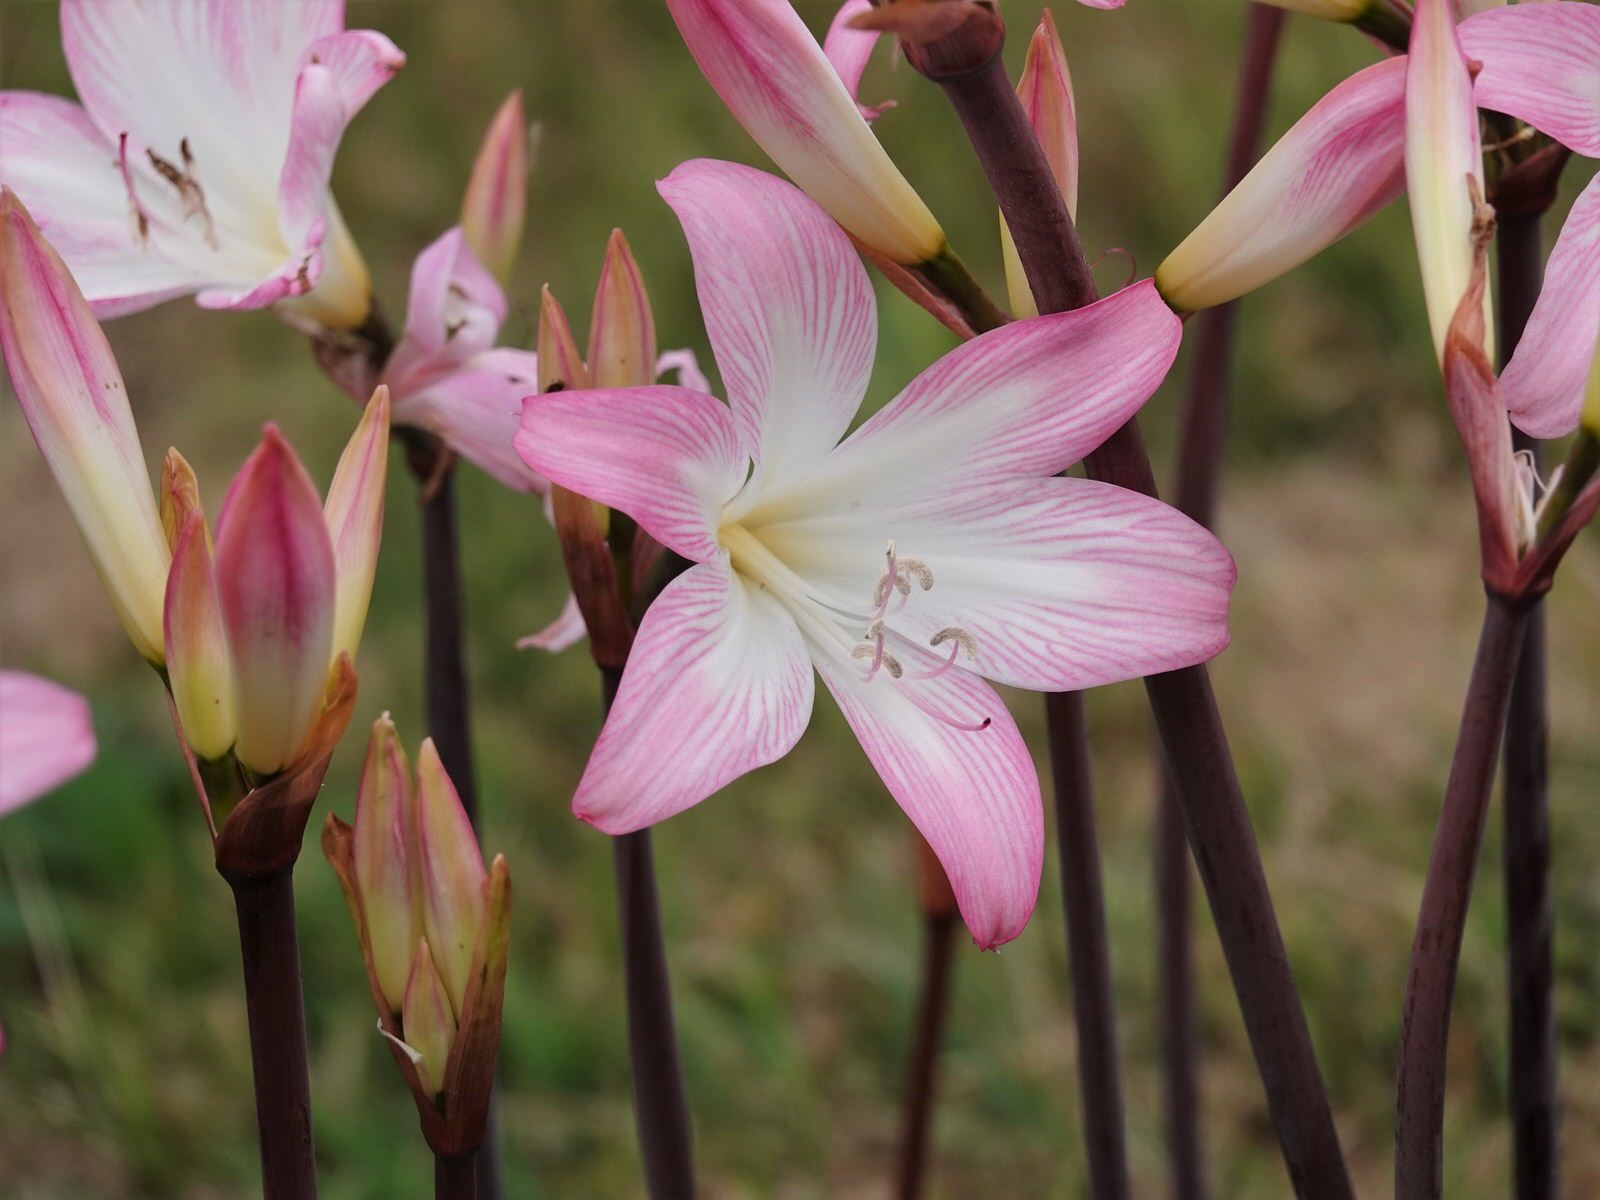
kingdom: Plantae
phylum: Tracheophyta
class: Liliopsida
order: Asparagales
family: Amaryllidaceae
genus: Amaryllis
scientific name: Amaryllis belladonna
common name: Jersey lily
